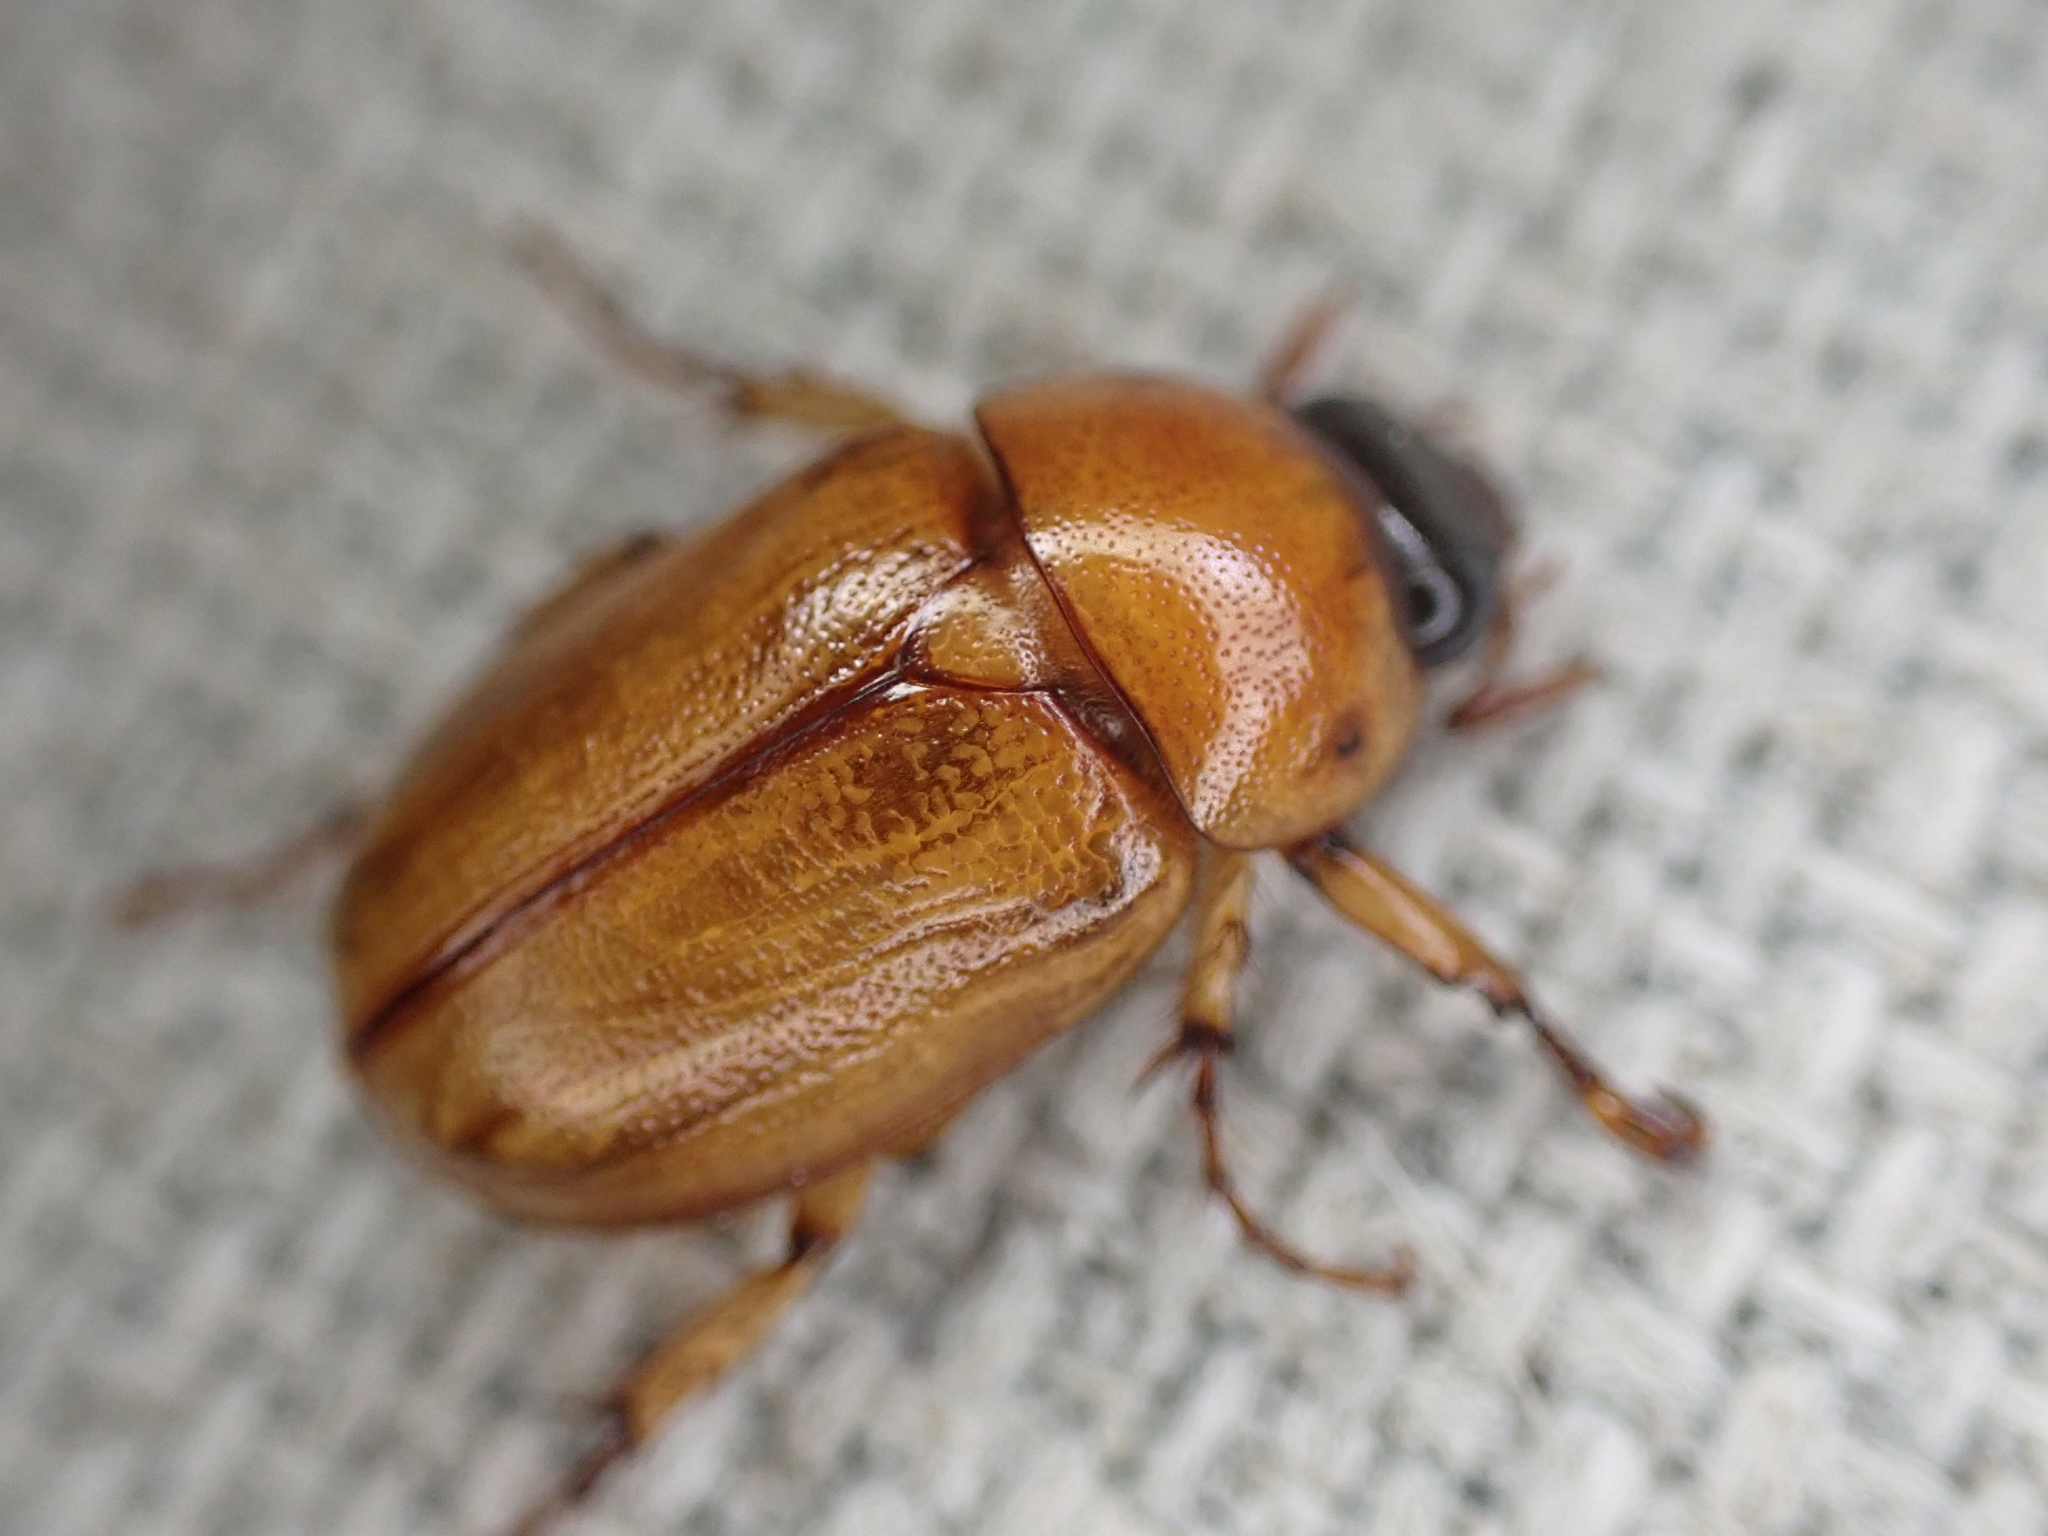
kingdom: Animalia
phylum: Arthropoda
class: Insecta
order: Coleoptera
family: Scarabaeidae
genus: Cyclocephala
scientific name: Cyclocephala lurida
